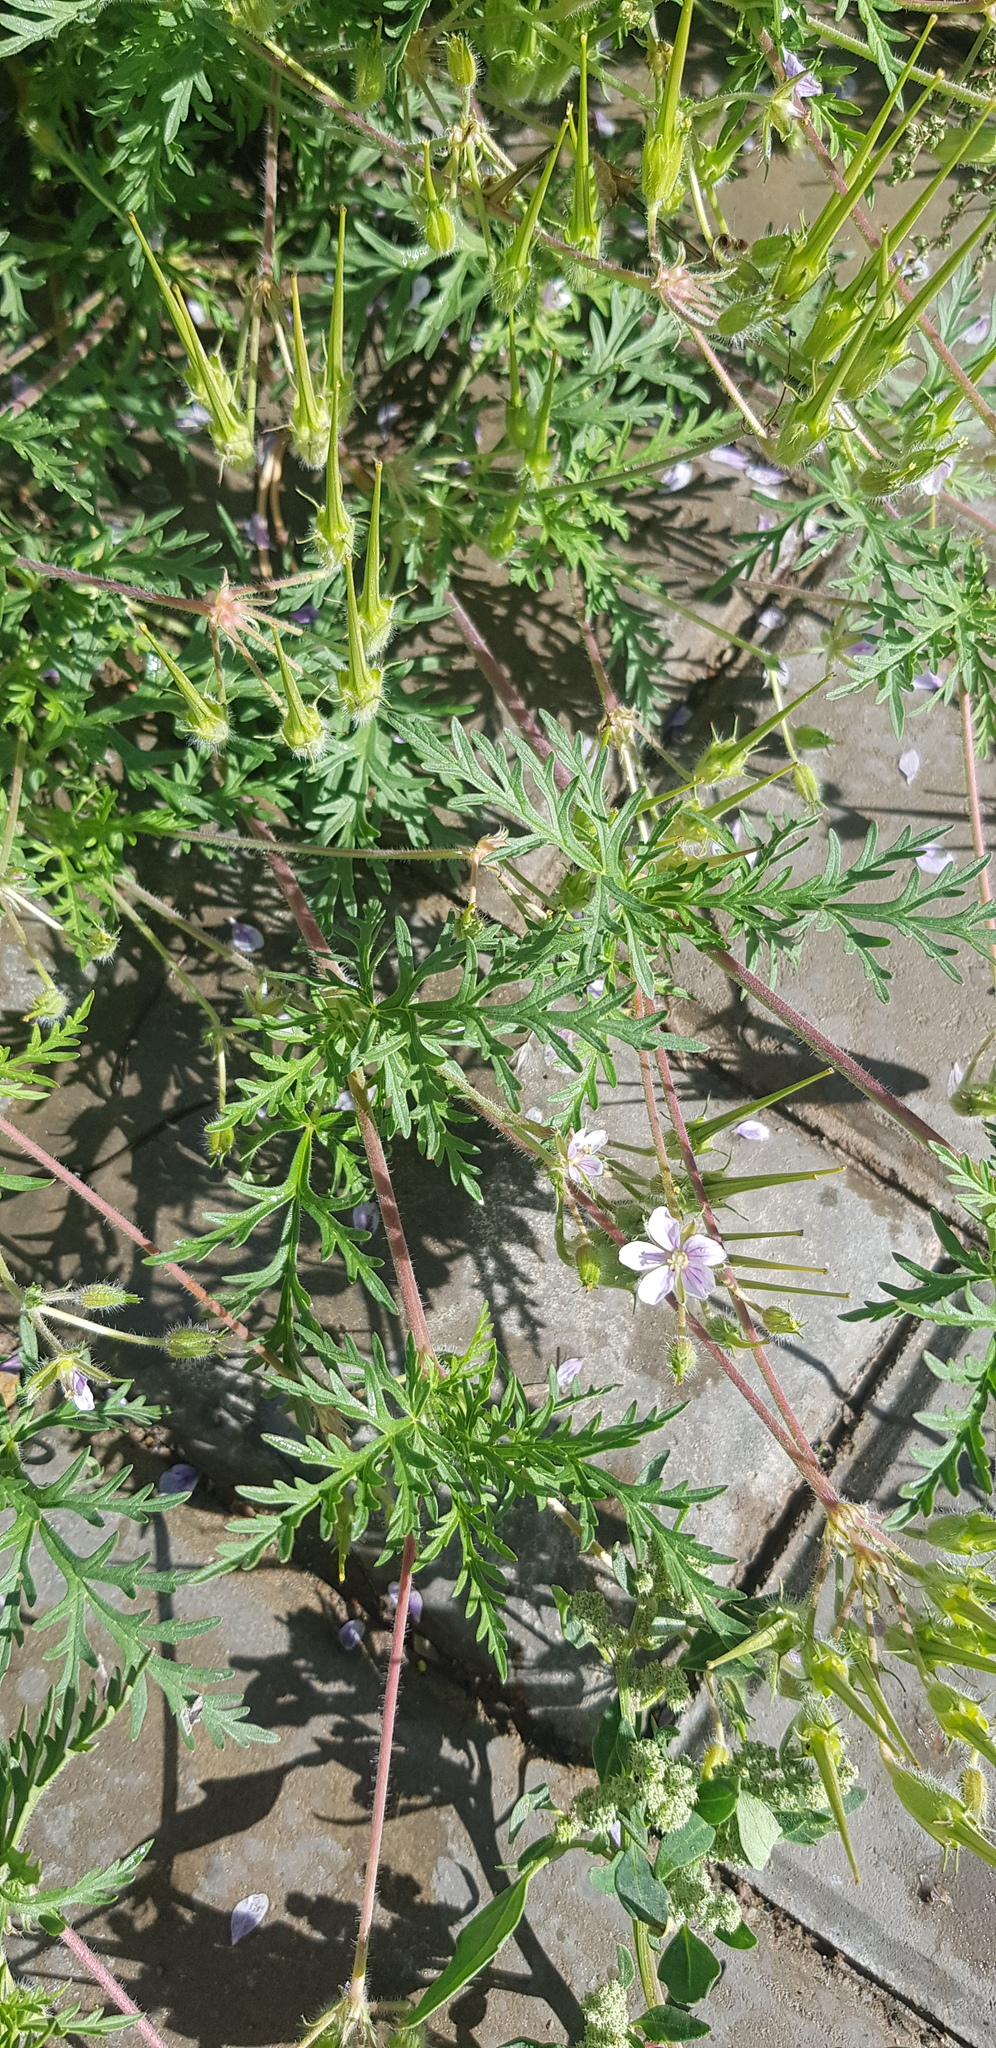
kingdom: Plantae
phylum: Tracheophyta
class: Magnoliopsida
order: Geraniales
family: Geraniaceae
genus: Erodium
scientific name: Erodium stephanianum
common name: Stephen's stork's bill
